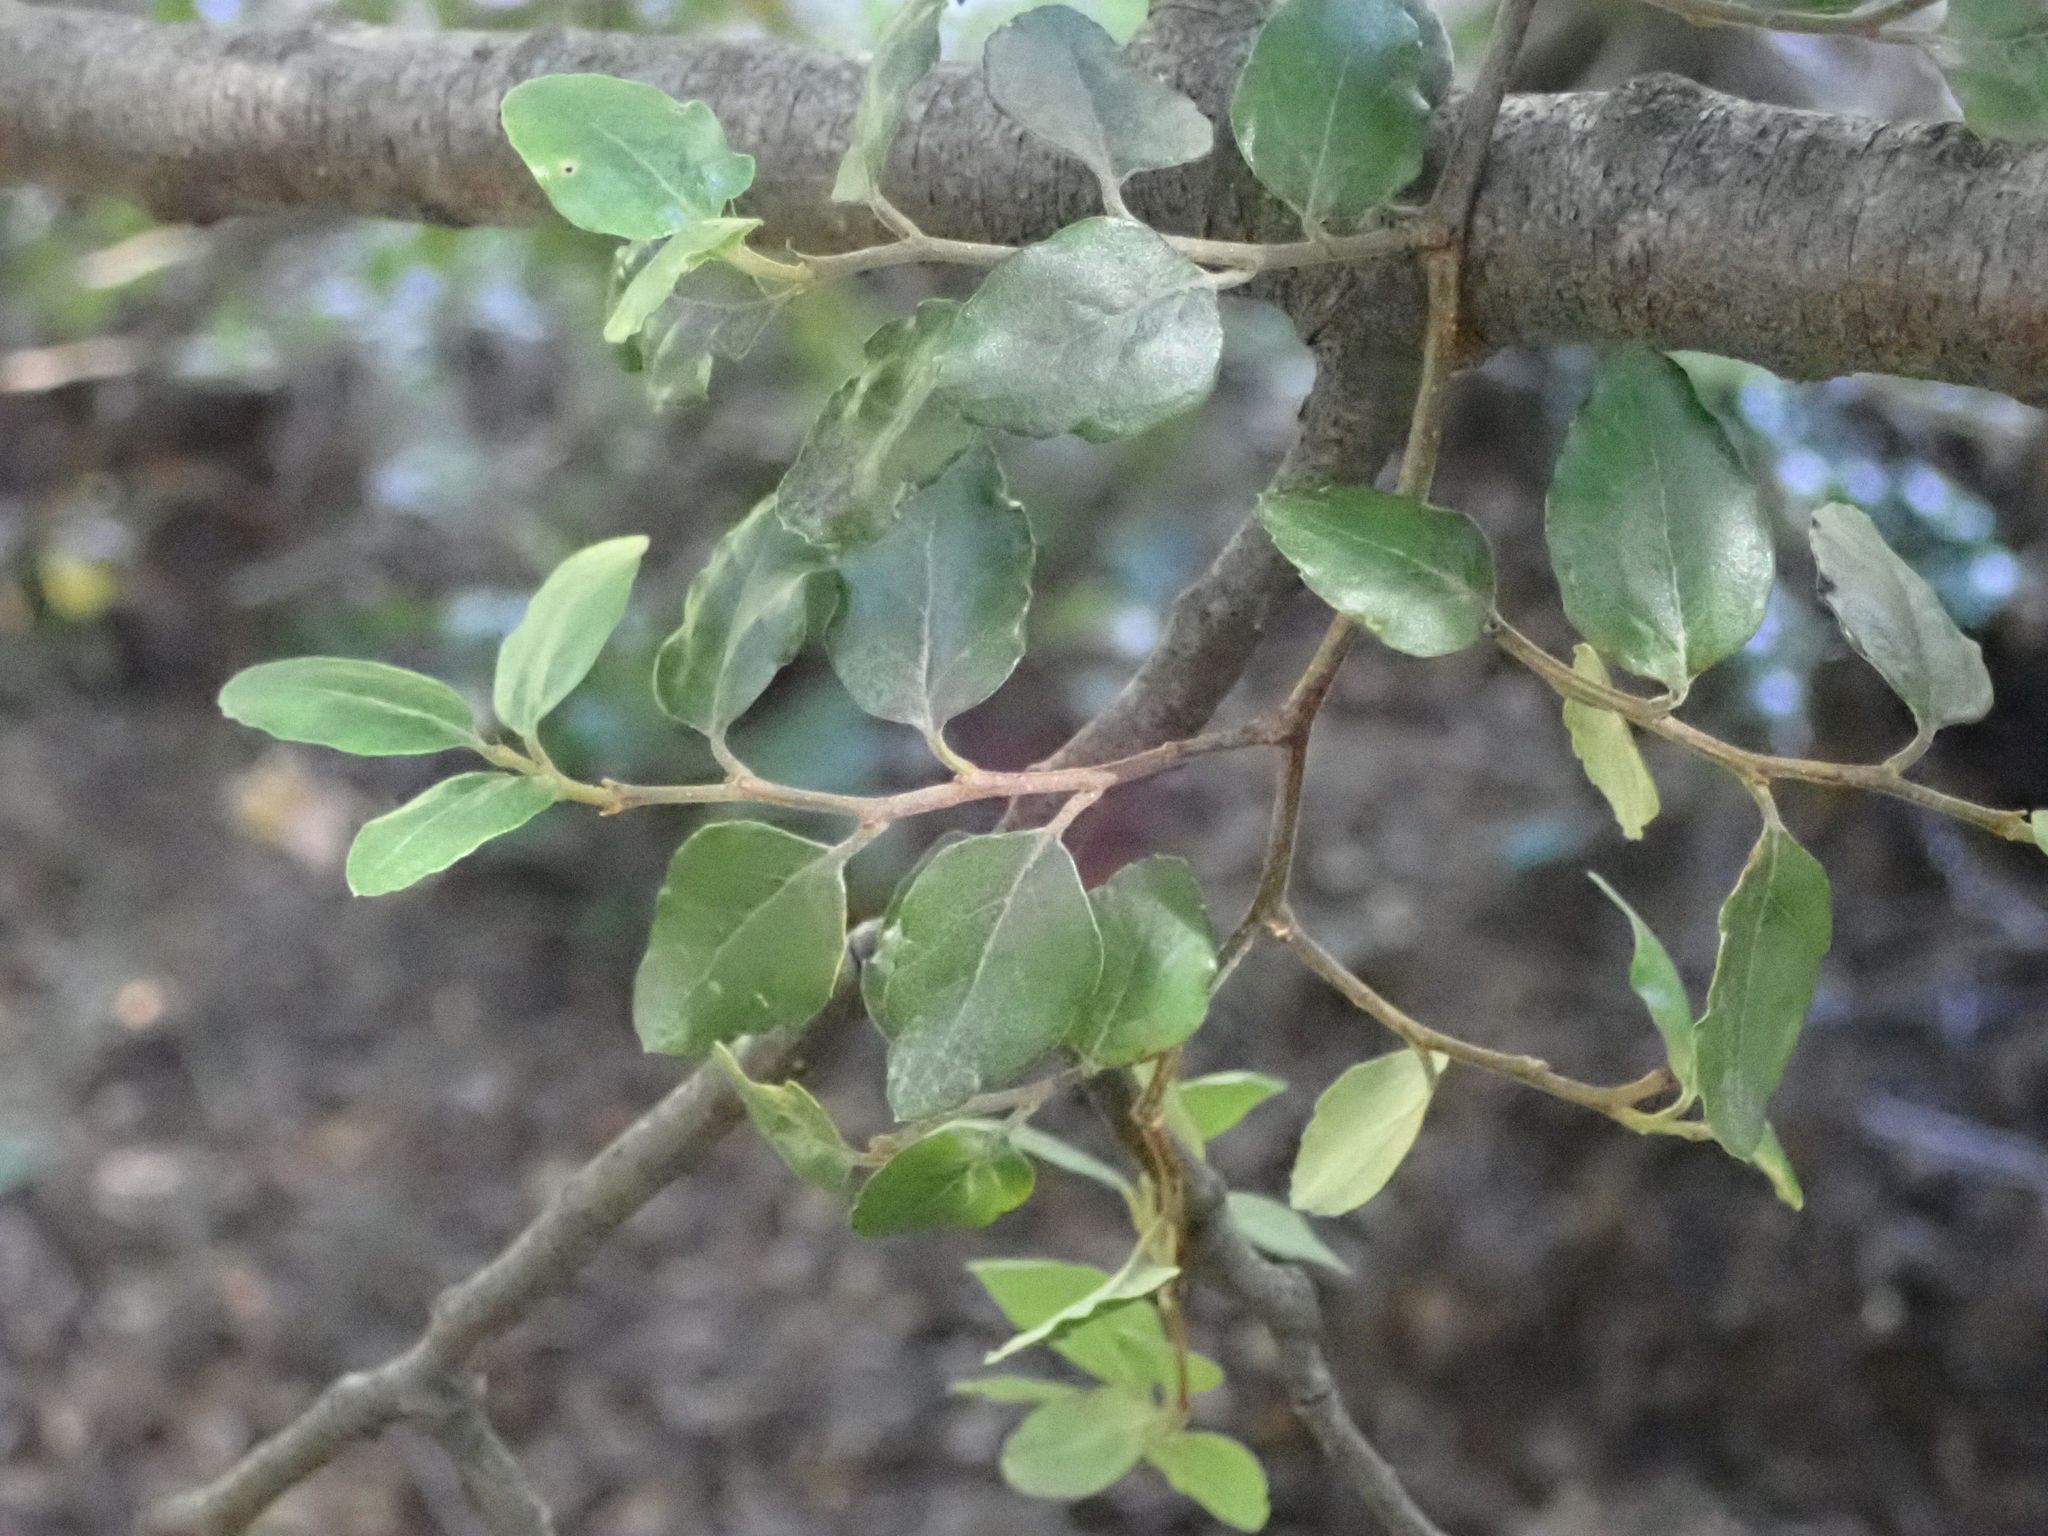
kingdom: Plantae
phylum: Tracheophyta
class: Magnoliopsida
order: Fagales
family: Nothofagaceae
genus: Nothofagus
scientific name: Nothofagus blairii
